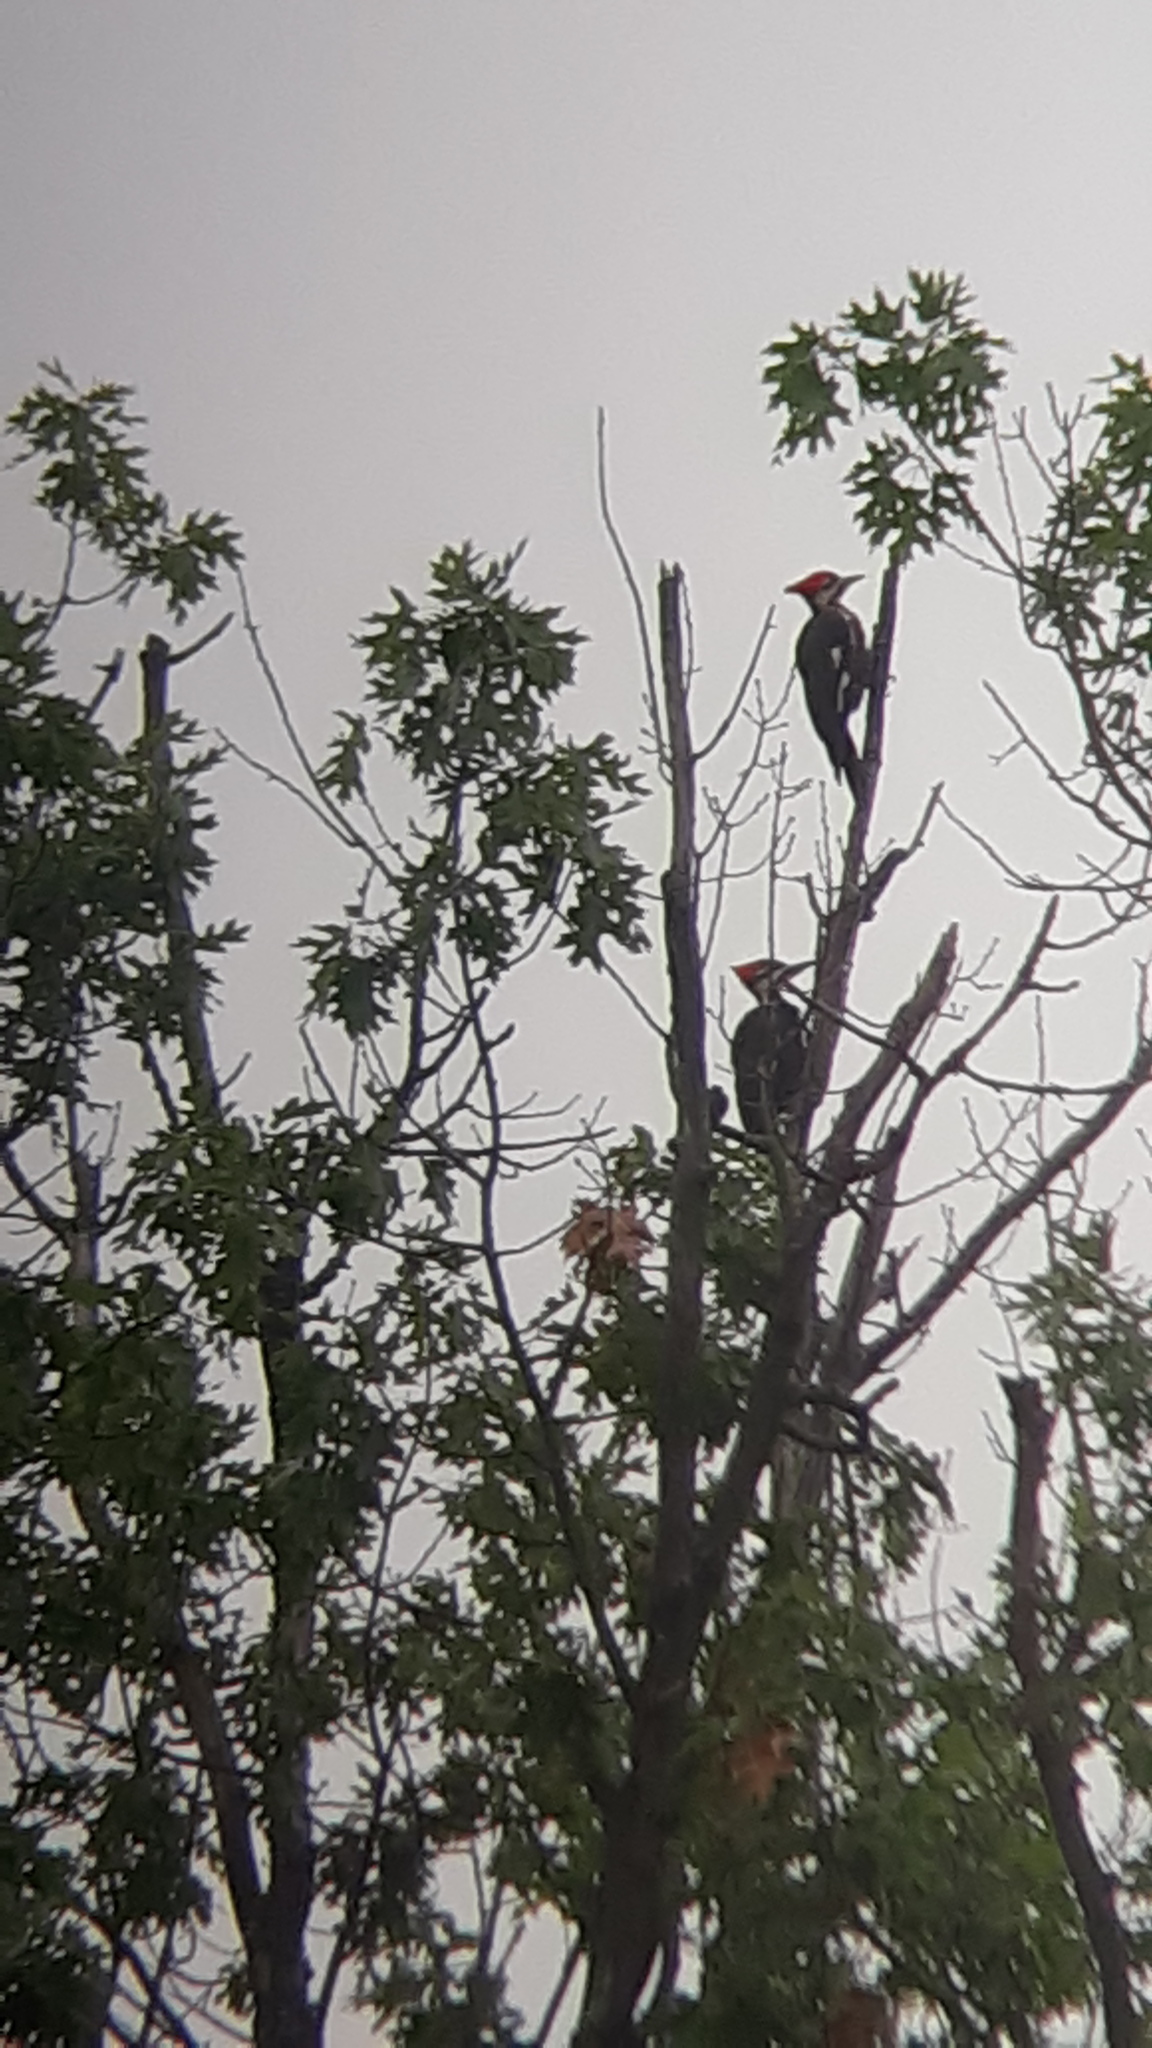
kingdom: Animalia
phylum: Chordata
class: Aves
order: Piciformes
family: Picidae
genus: Dryocopus
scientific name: Dryocopus pileatus
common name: Pileated woodpecker
